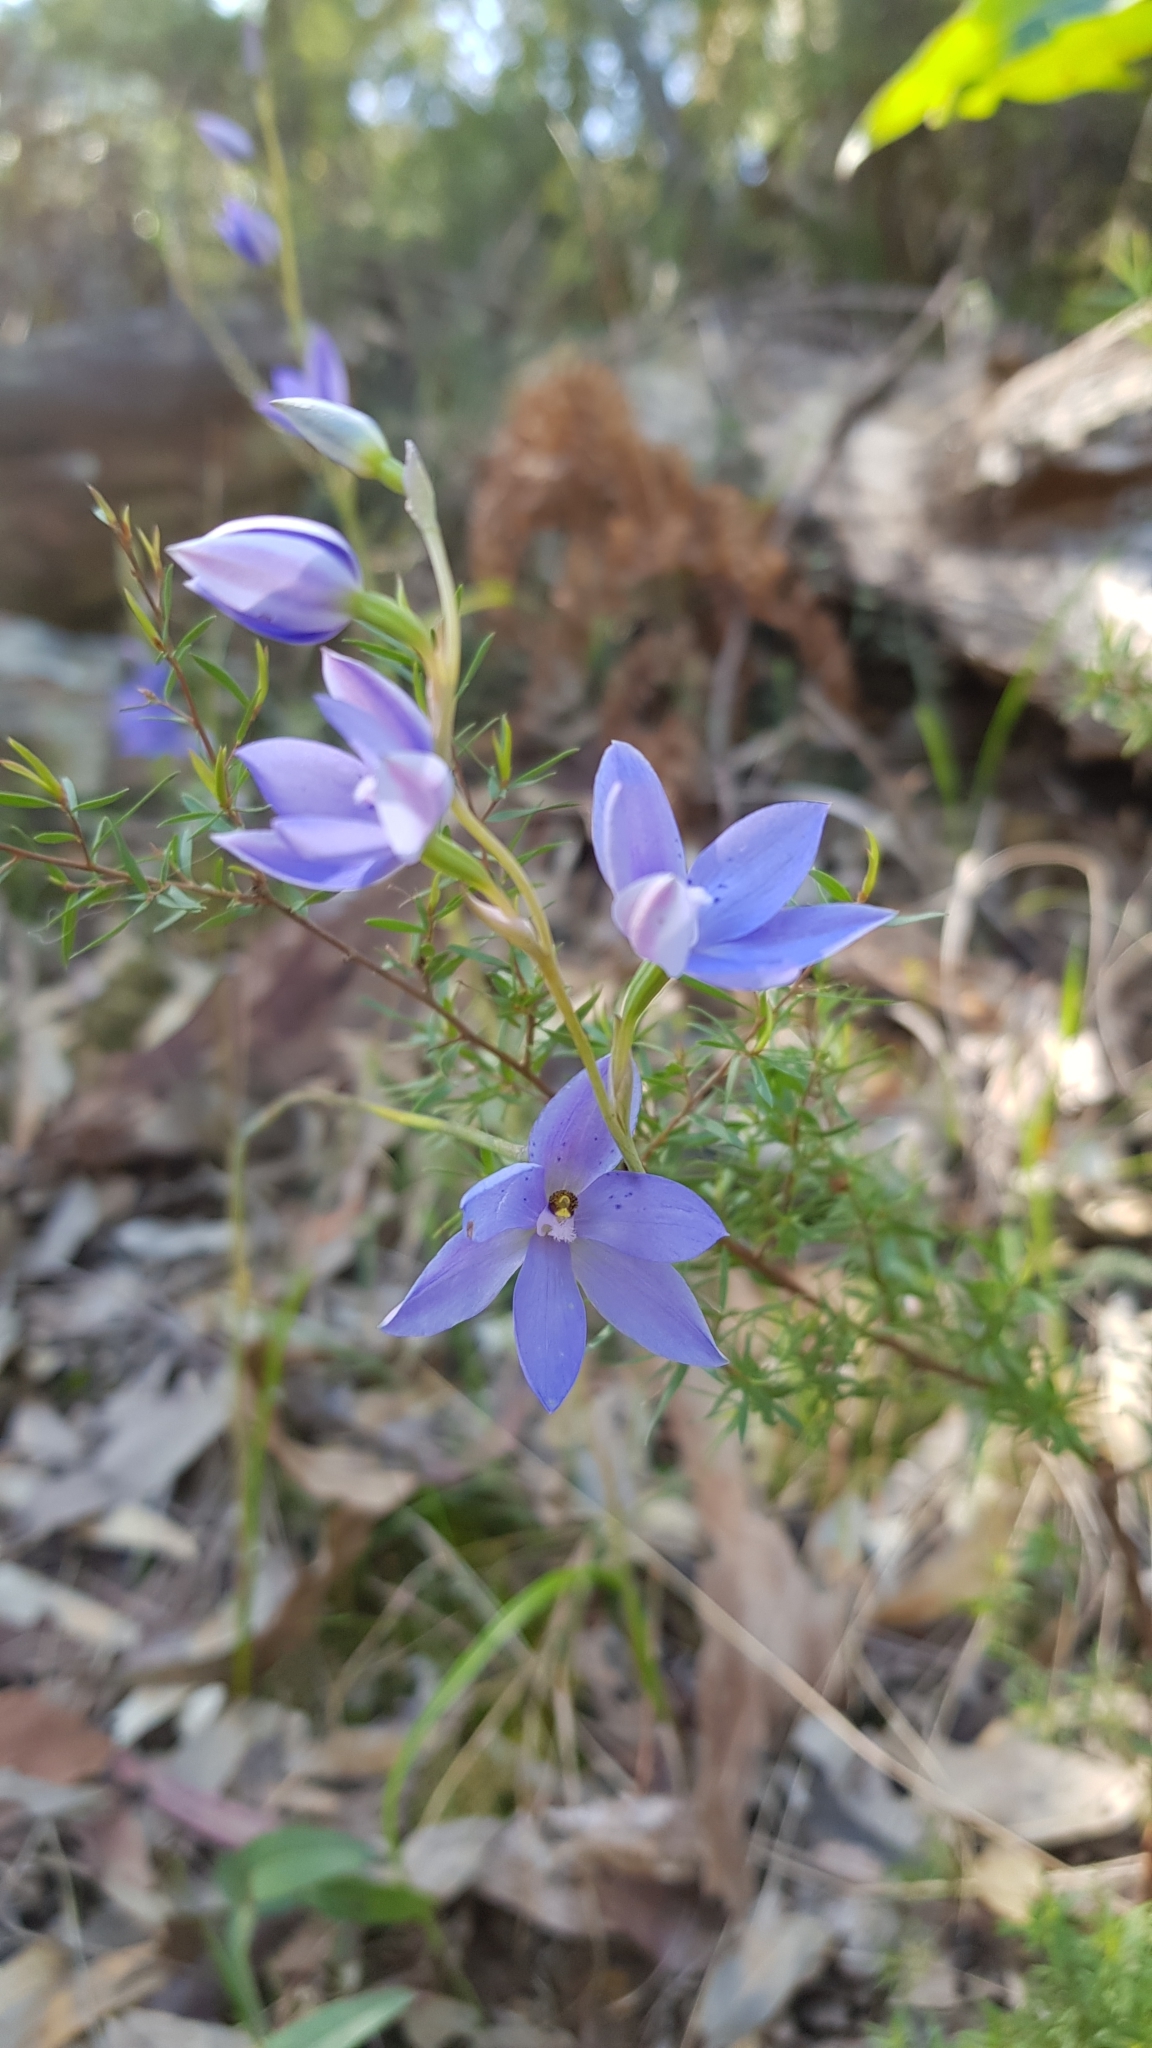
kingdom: Plantae
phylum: Tracheophyta
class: Liliopsida
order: Asparagales
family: Orchidaceae
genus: Thelymitra
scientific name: Thelymitra ixioides
